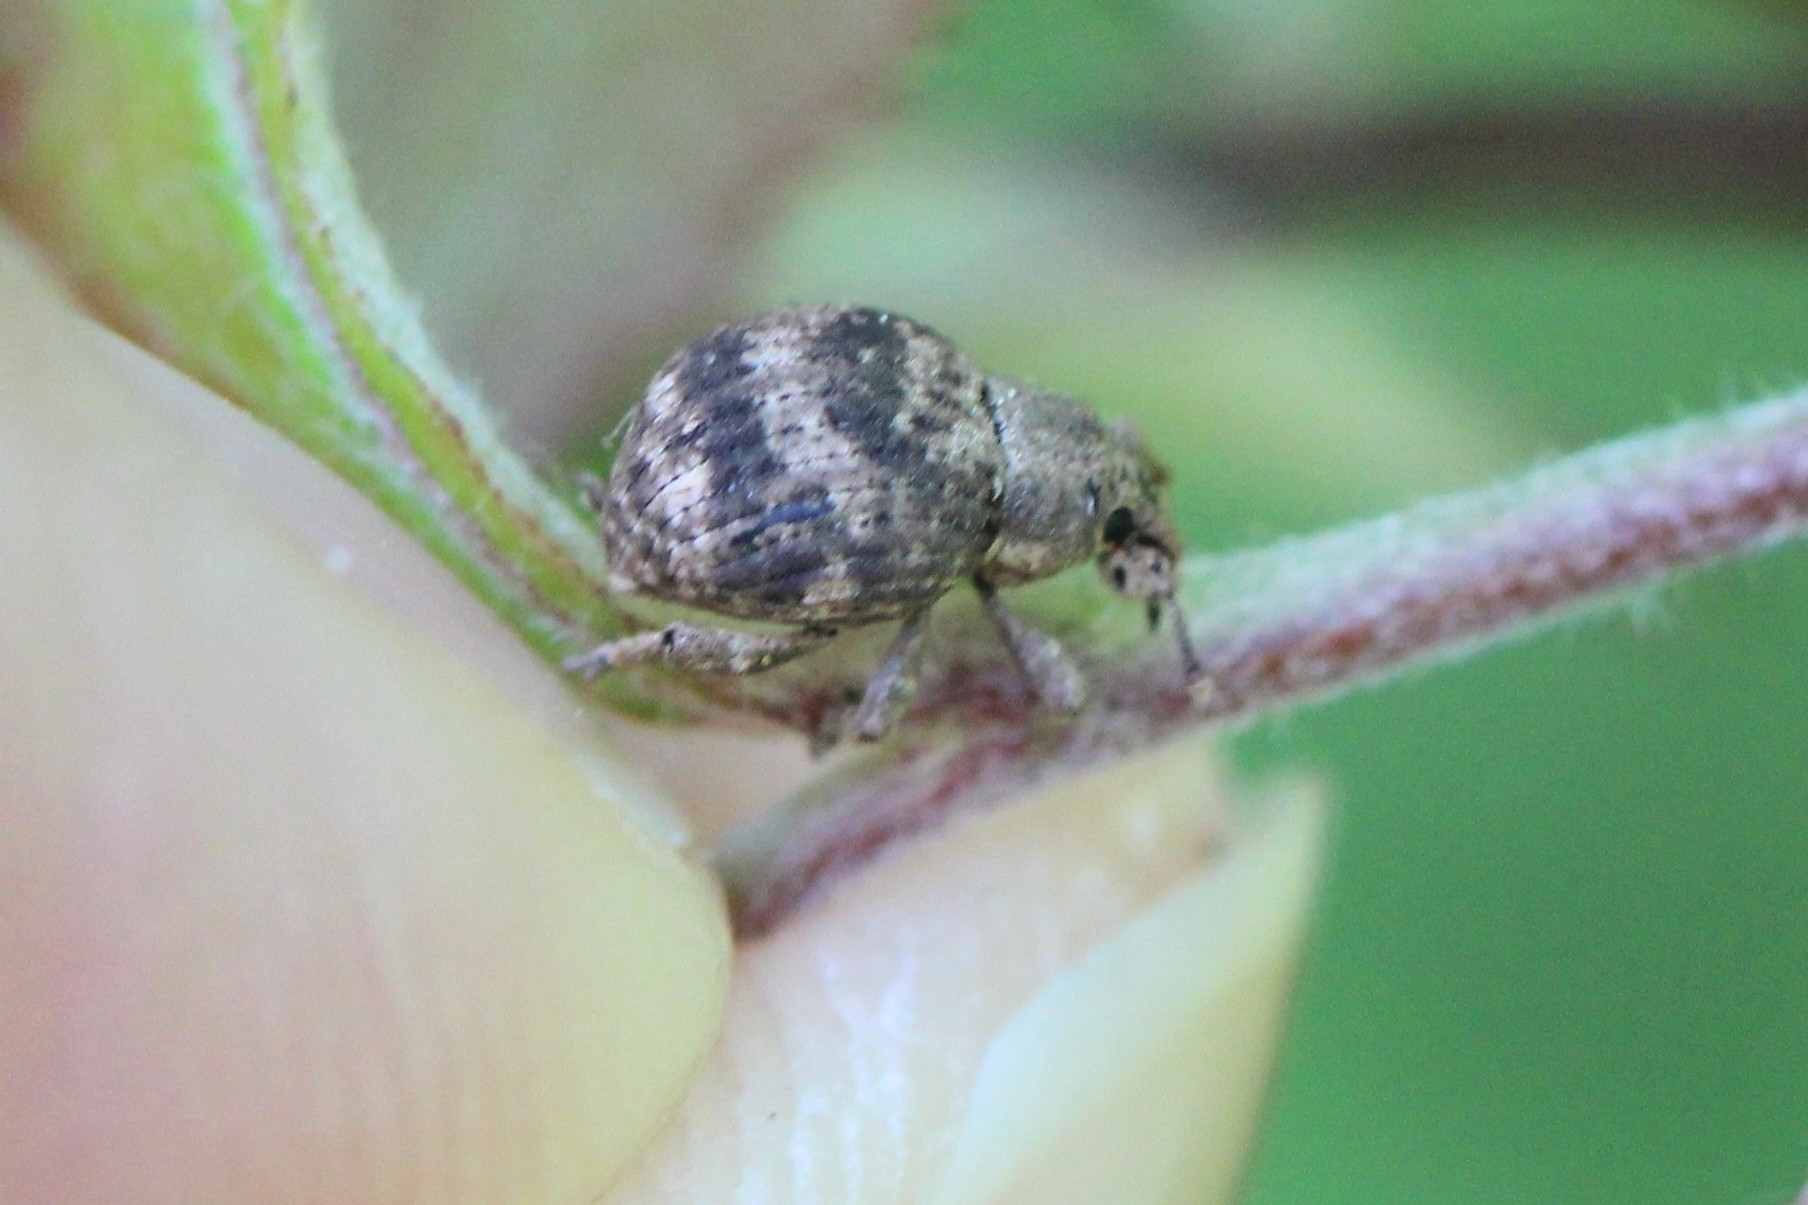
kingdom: Animalia
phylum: Arthropoda
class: Insecta
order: Coleoptera
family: Curculionidae
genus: Pseudocneorhinus
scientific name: Pseudocneorhinus bifasciatus
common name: Two-banded japanese weevil
